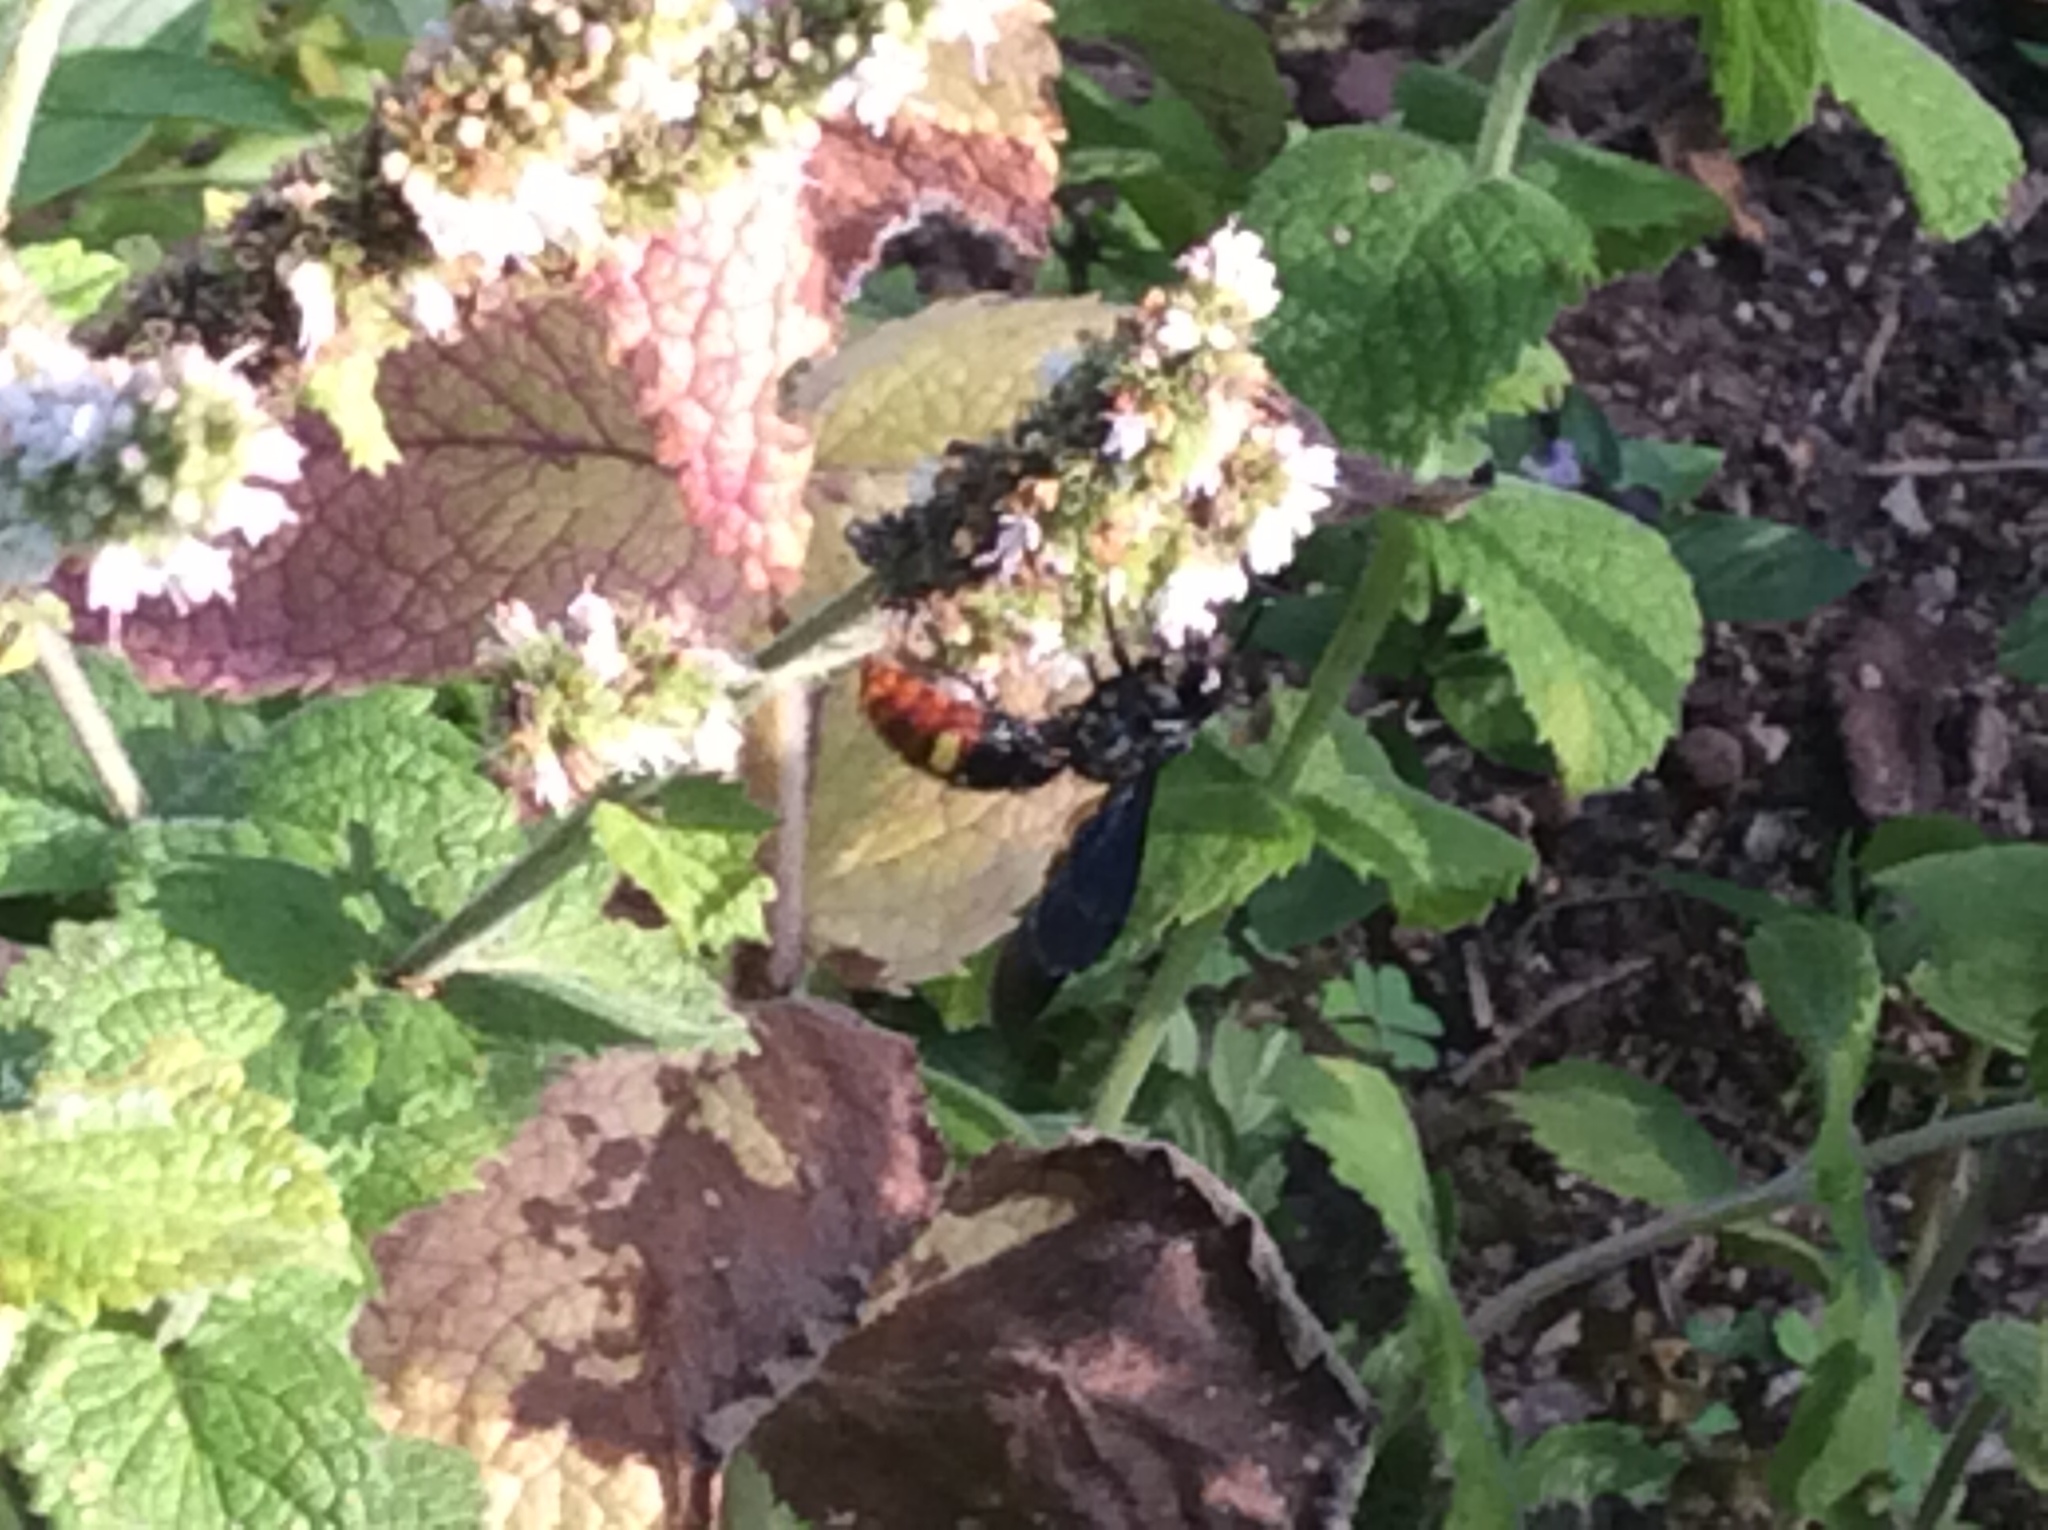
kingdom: Animalia
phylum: Arthropoda
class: Insecta
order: Hymenoptera
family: Scoliidae
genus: Scolia
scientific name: Scolia dubia
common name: Blue-winged scoliid wasp
